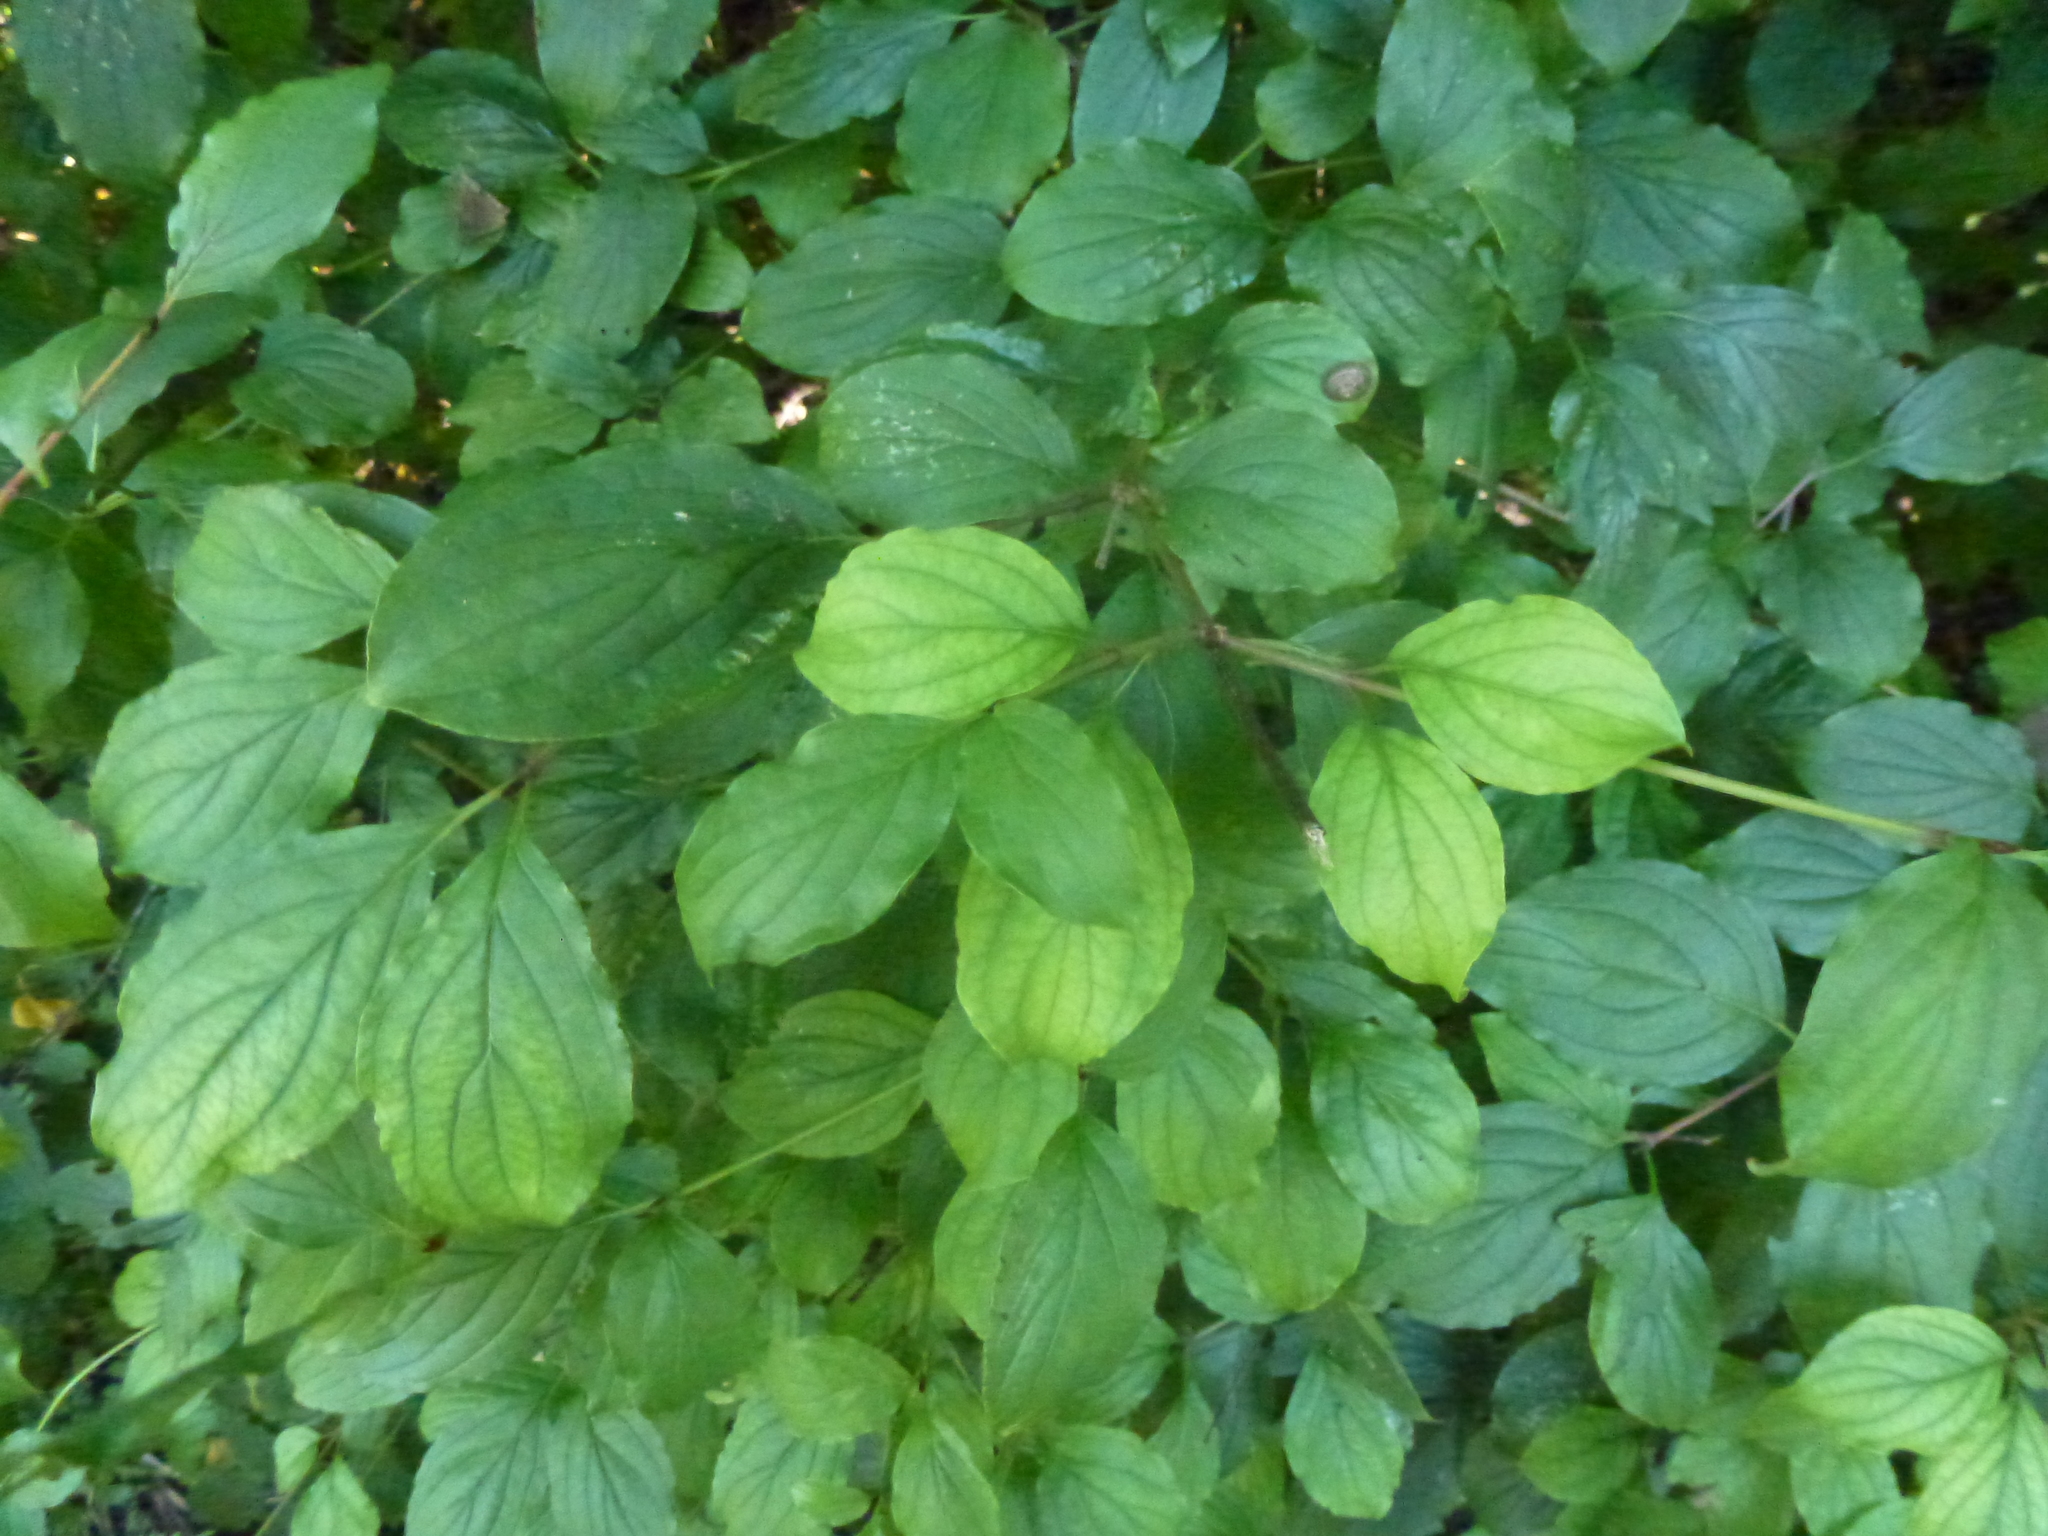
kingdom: Plantae
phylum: Tracheophyta
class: Magnoliopsida
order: Cornales
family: Cornaceae
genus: Cornus
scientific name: Cornus sanguinea
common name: Dogwood
